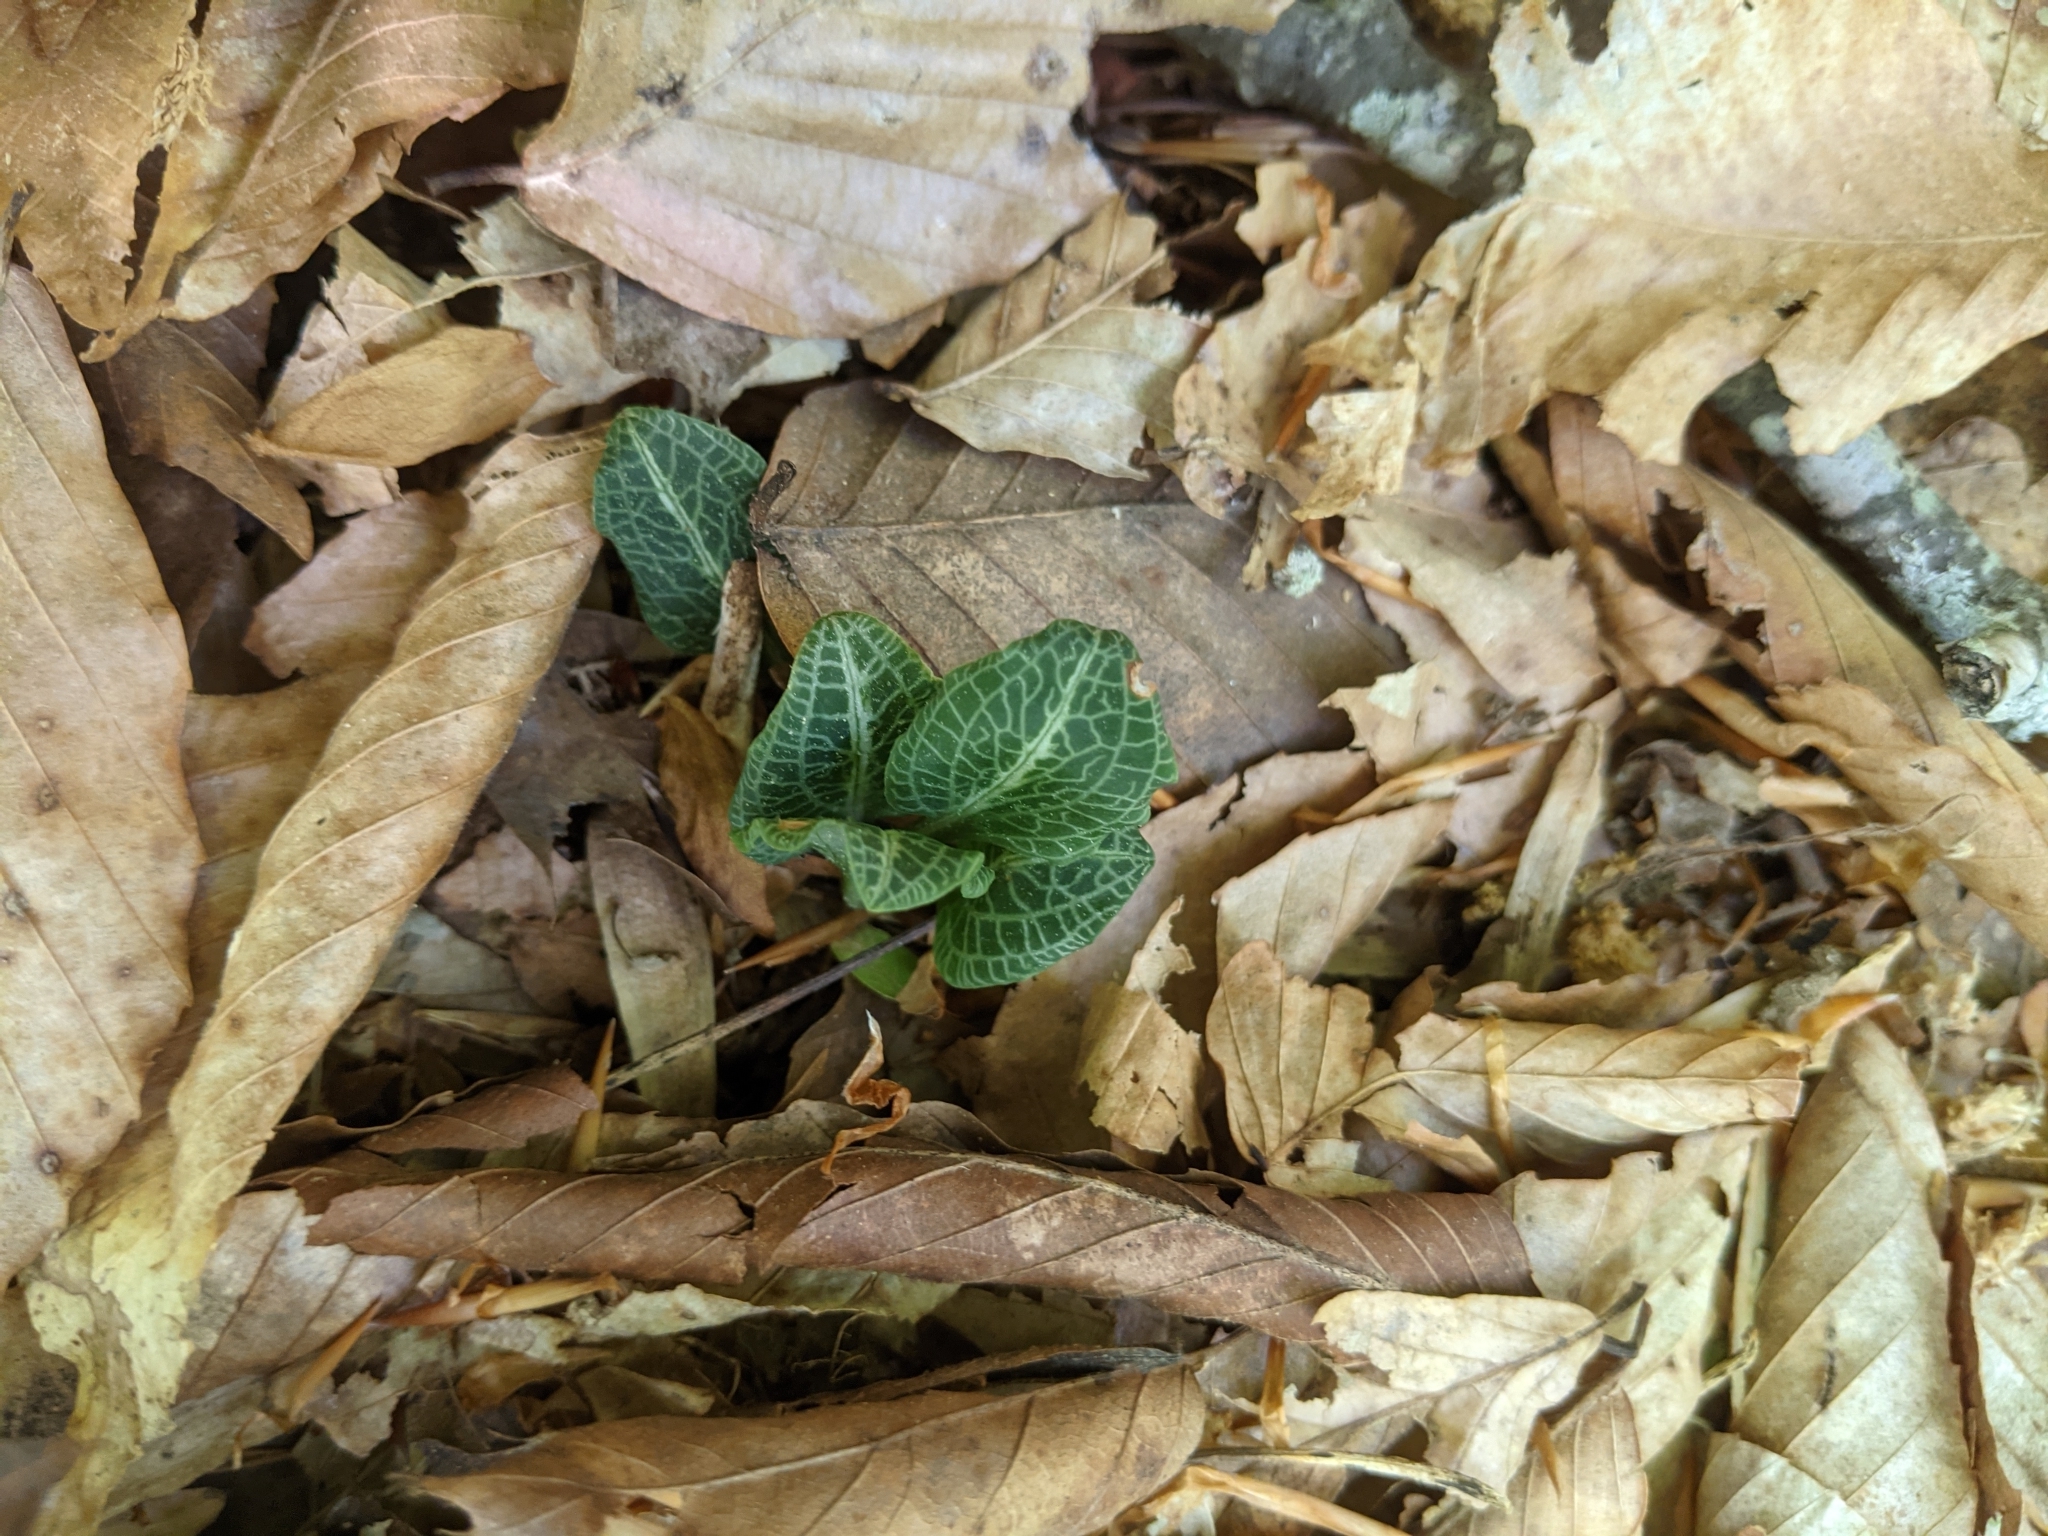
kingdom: Plantae
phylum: Tracheophyta
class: Liliopsida
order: Asparagales
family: Orchidaceae
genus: Goodyera
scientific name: Goodyera pubescens
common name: Downy rattlesnake-plantain
